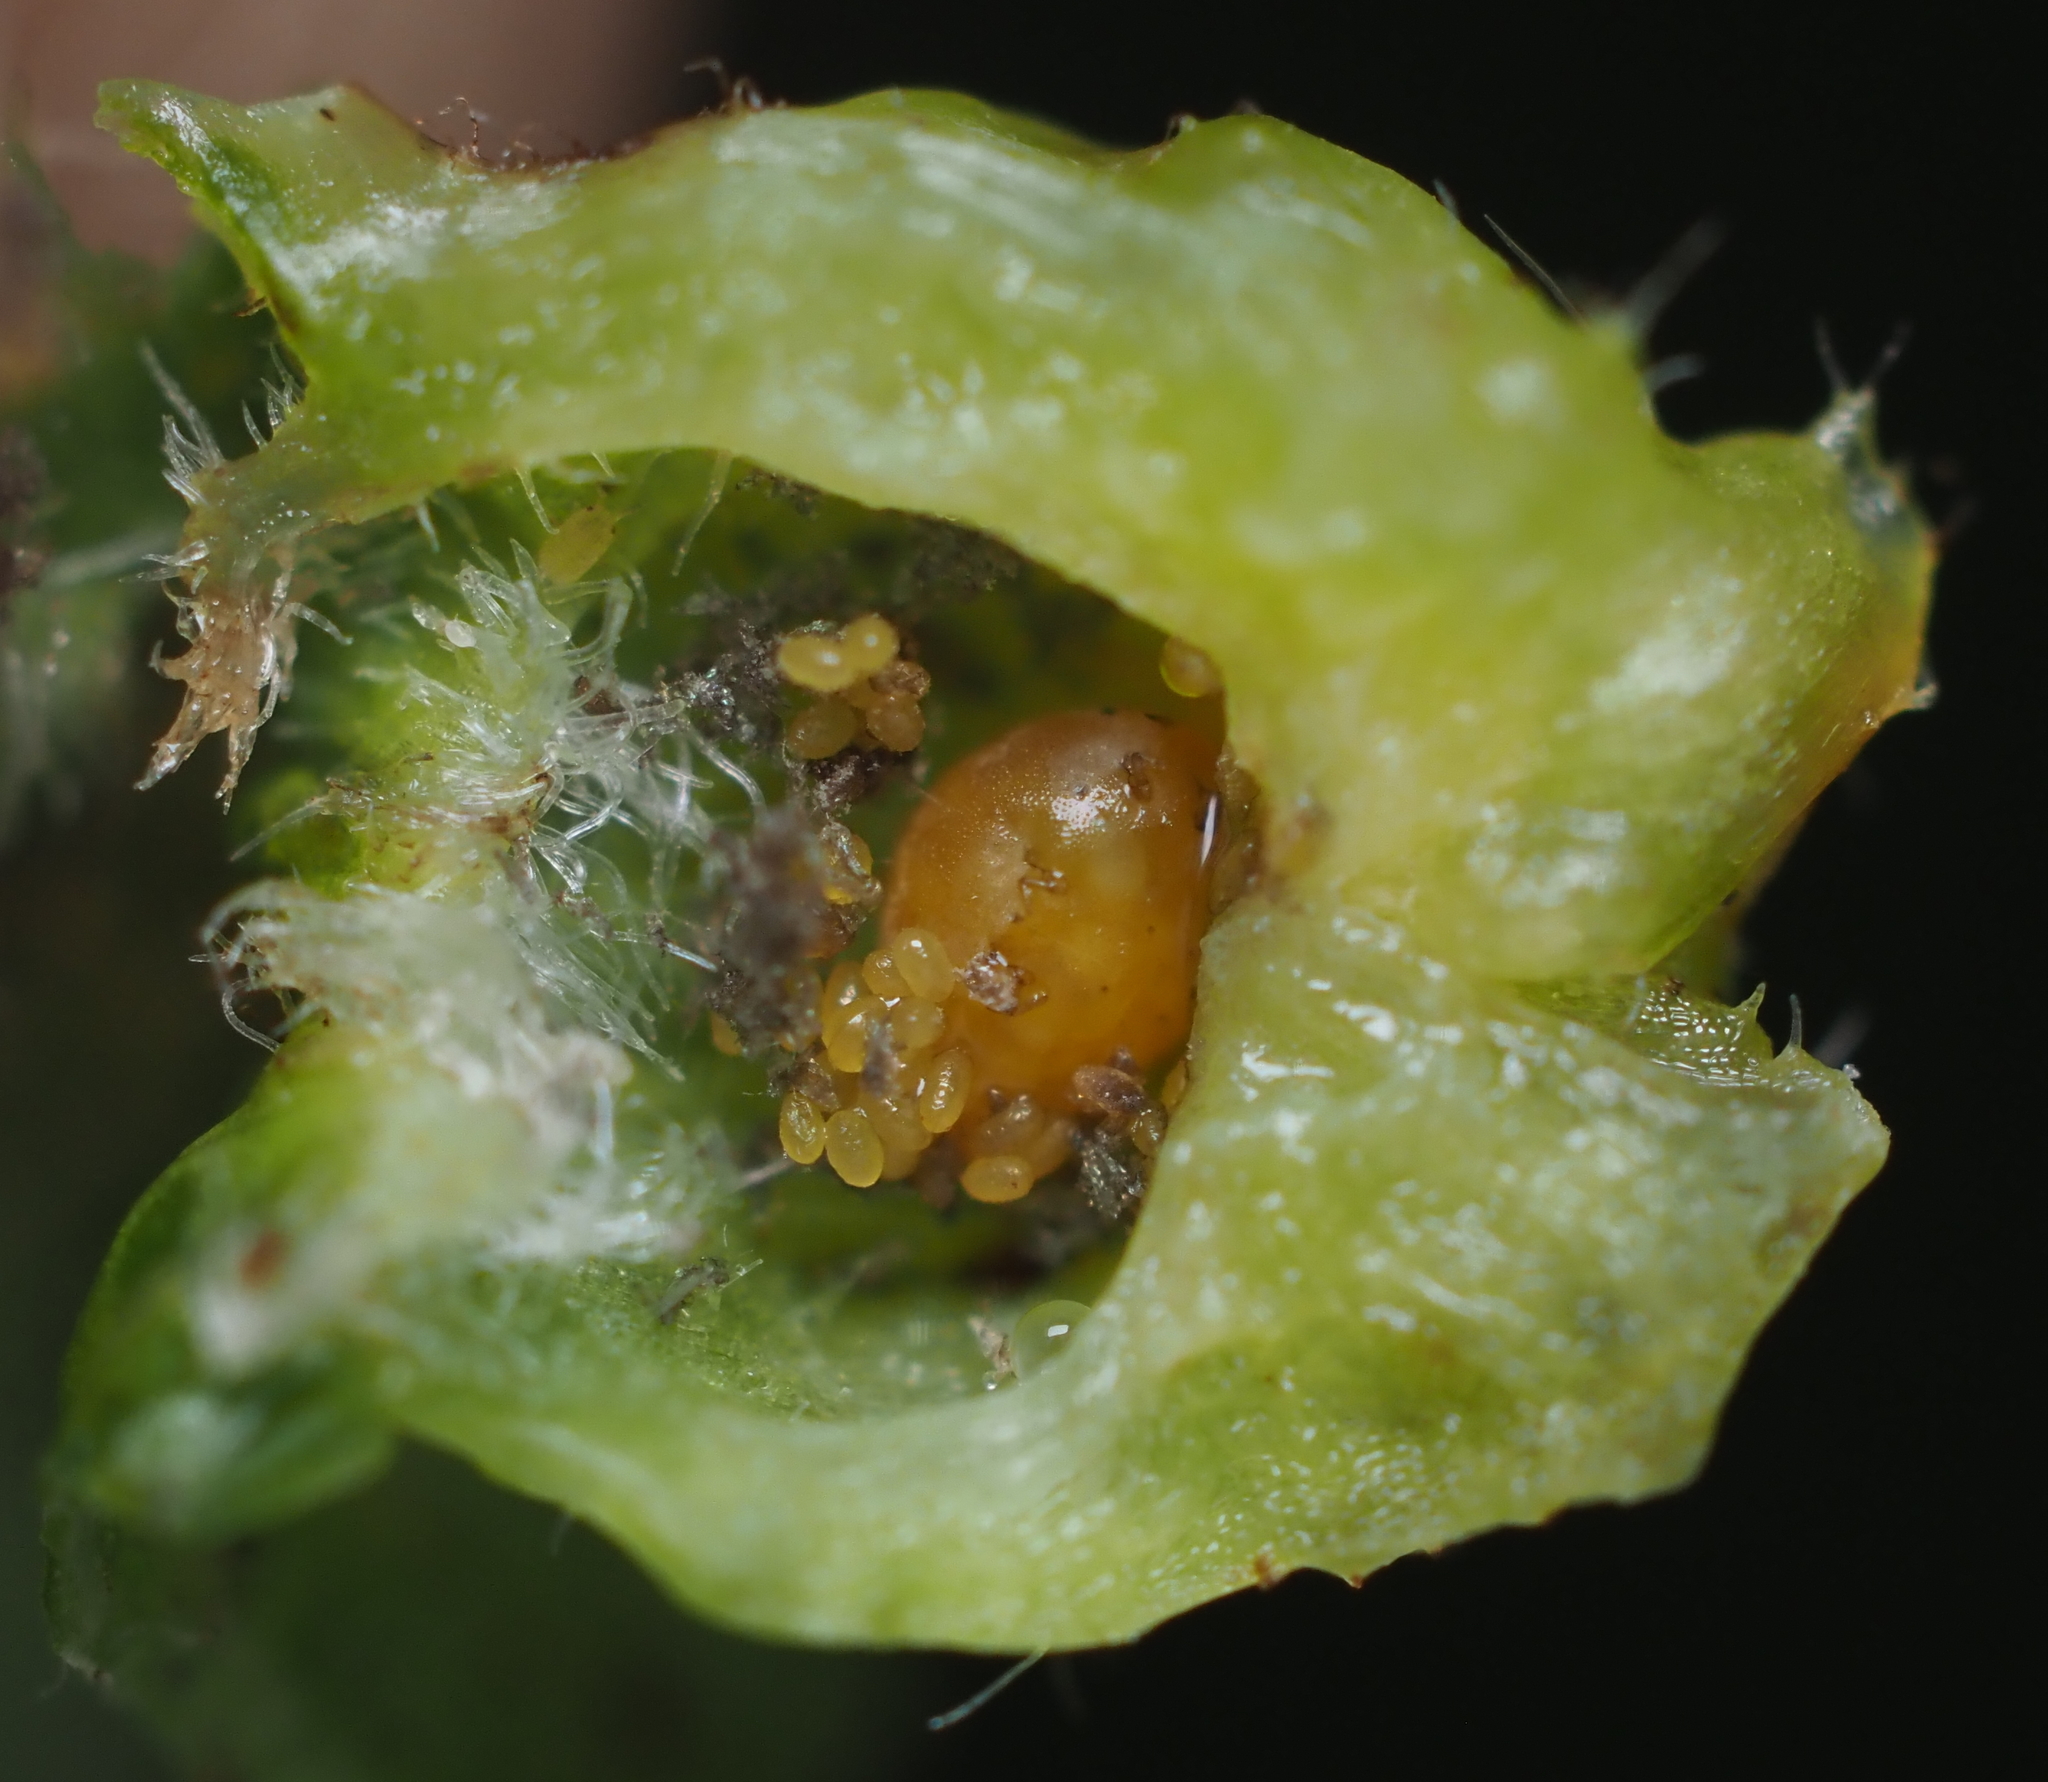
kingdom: Animalia
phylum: Arthropoda
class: Insecta
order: Hemiptera
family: Phylloxeridae
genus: Daktulosphaira
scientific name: Daktulosphaira vitifoliae
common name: Grape phylloxera
